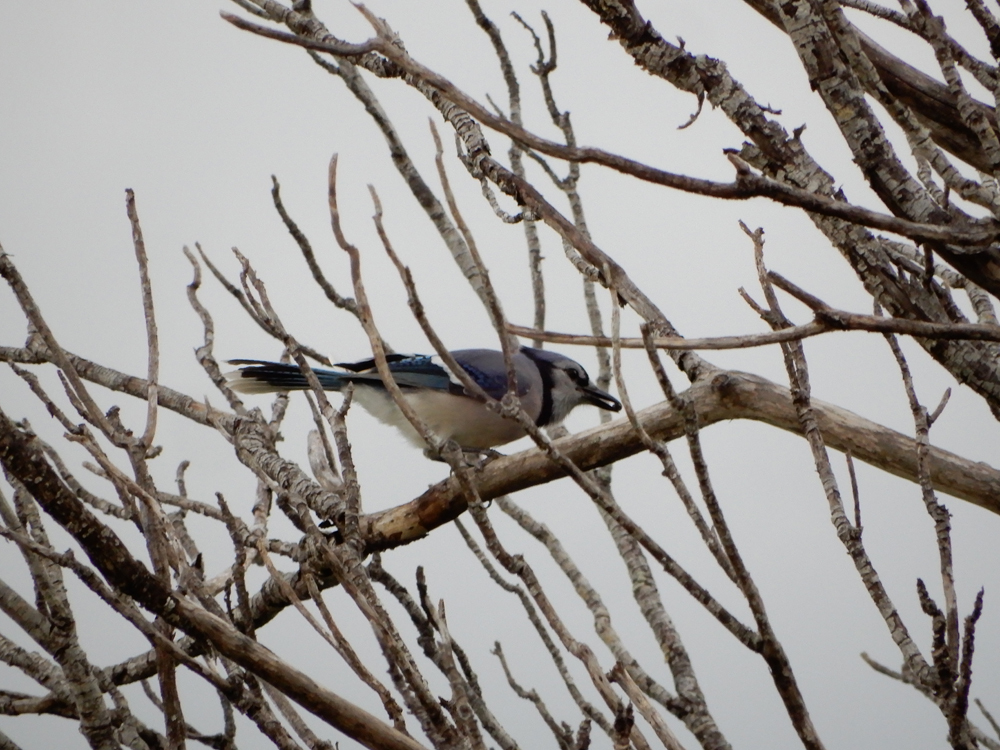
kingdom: Animalia
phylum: Chordata
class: Aves
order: Passeriformes
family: Corvidae
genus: Cyanocitta
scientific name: Cyanocitta cristata
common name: Blue jay
